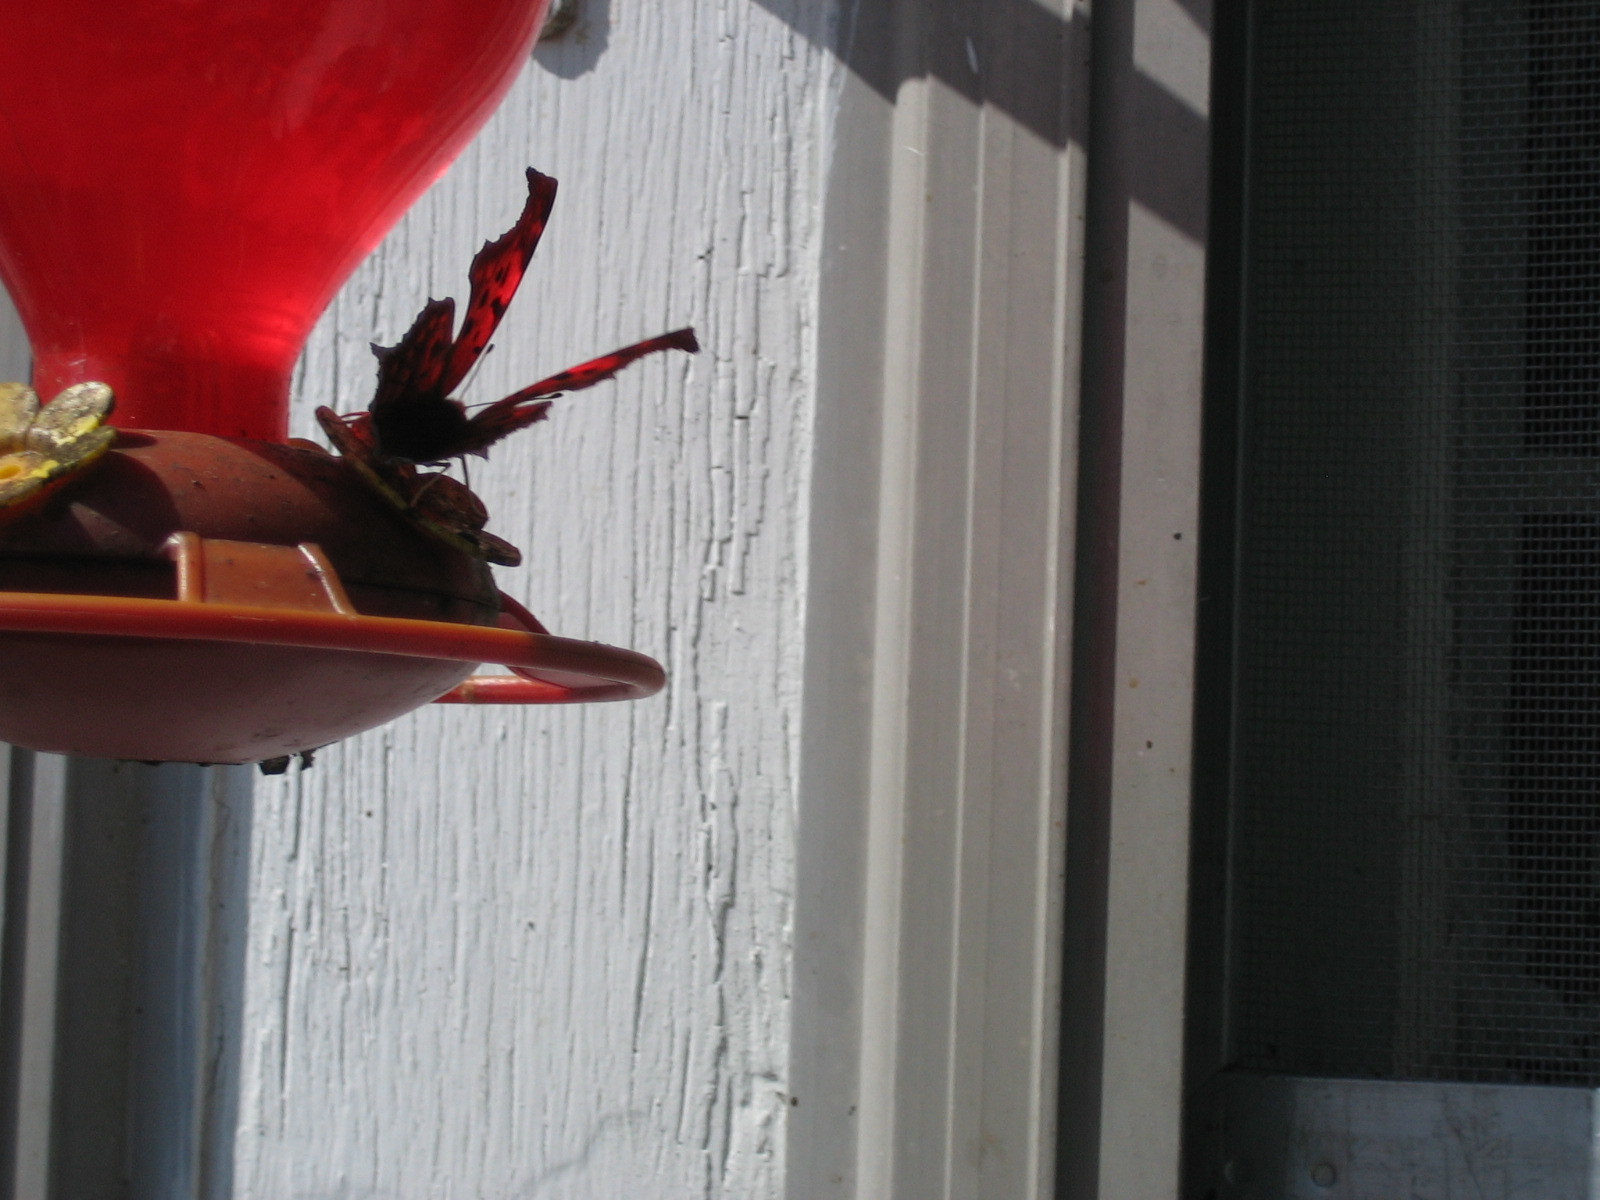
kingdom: Animalia
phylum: Arthropoda
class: Insecta
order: Lepidoptera
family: Nymphalidae
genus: Polygonia
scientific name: Polygonia interrogationis
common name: Question mark
